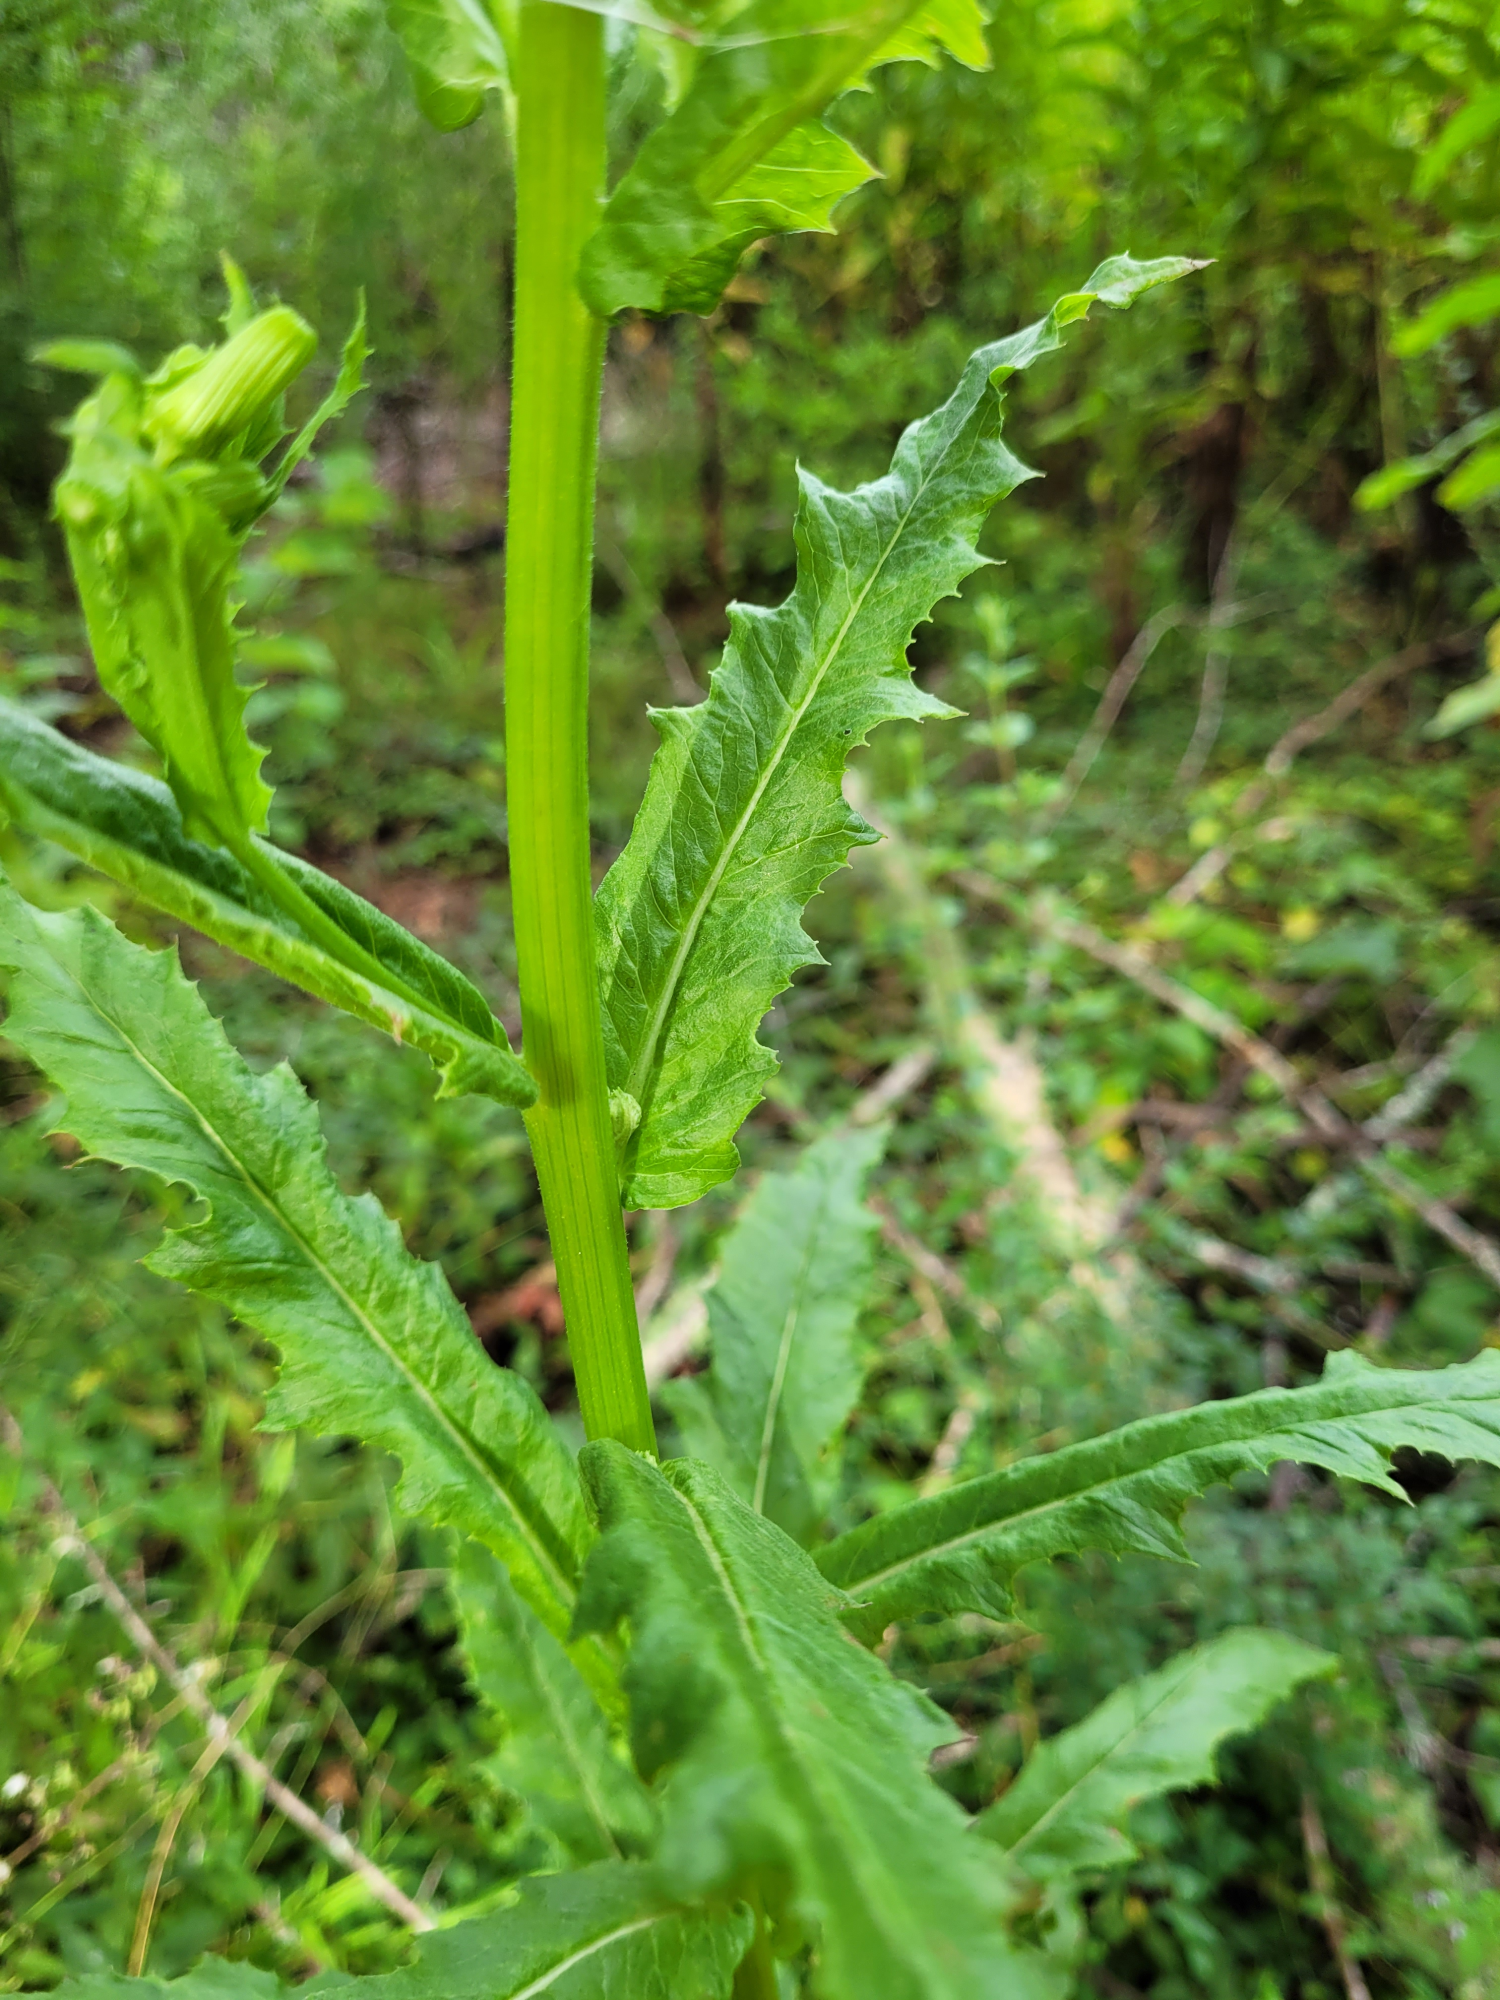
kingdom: Plantae
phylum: Tracheophyta
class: Magnoliopsida
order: Asterales
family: Asteraceae
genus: Erechtites
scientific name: Erechtites hieraciifolius
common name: American burnweed
